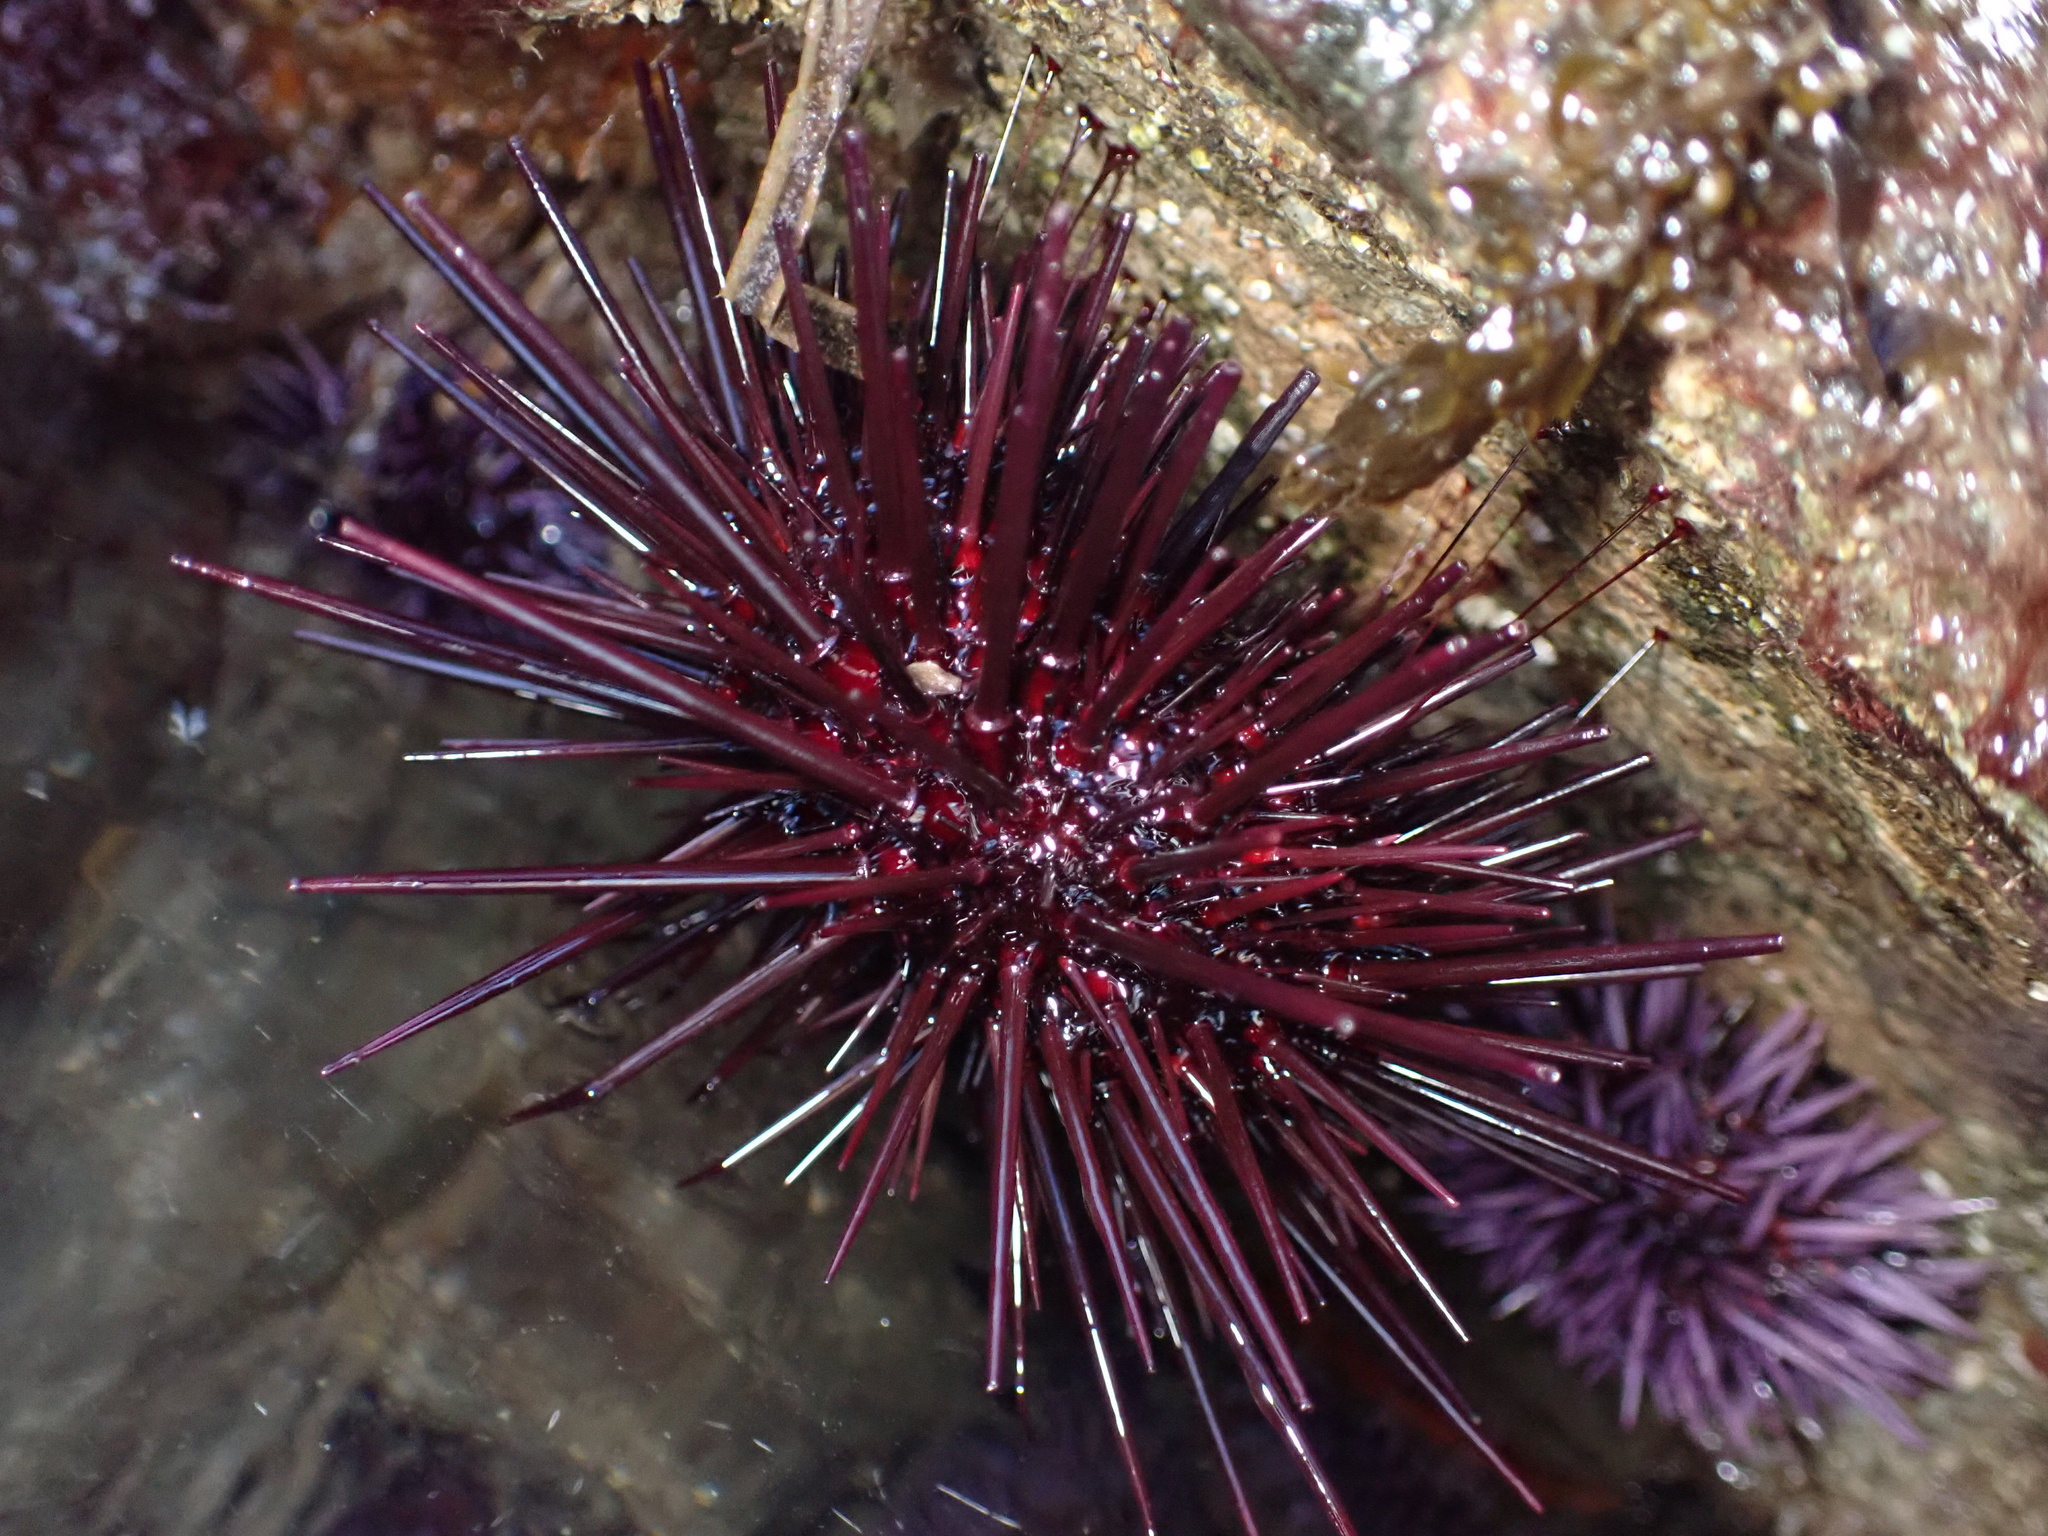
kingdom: Animalia
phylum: Echinodermata
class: Echinoidea
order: Camarodonta
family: Strongylocentrotidae
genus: Mesocentrotus
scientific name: Mesocentrotus franciscanus
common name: Red sea urchin
